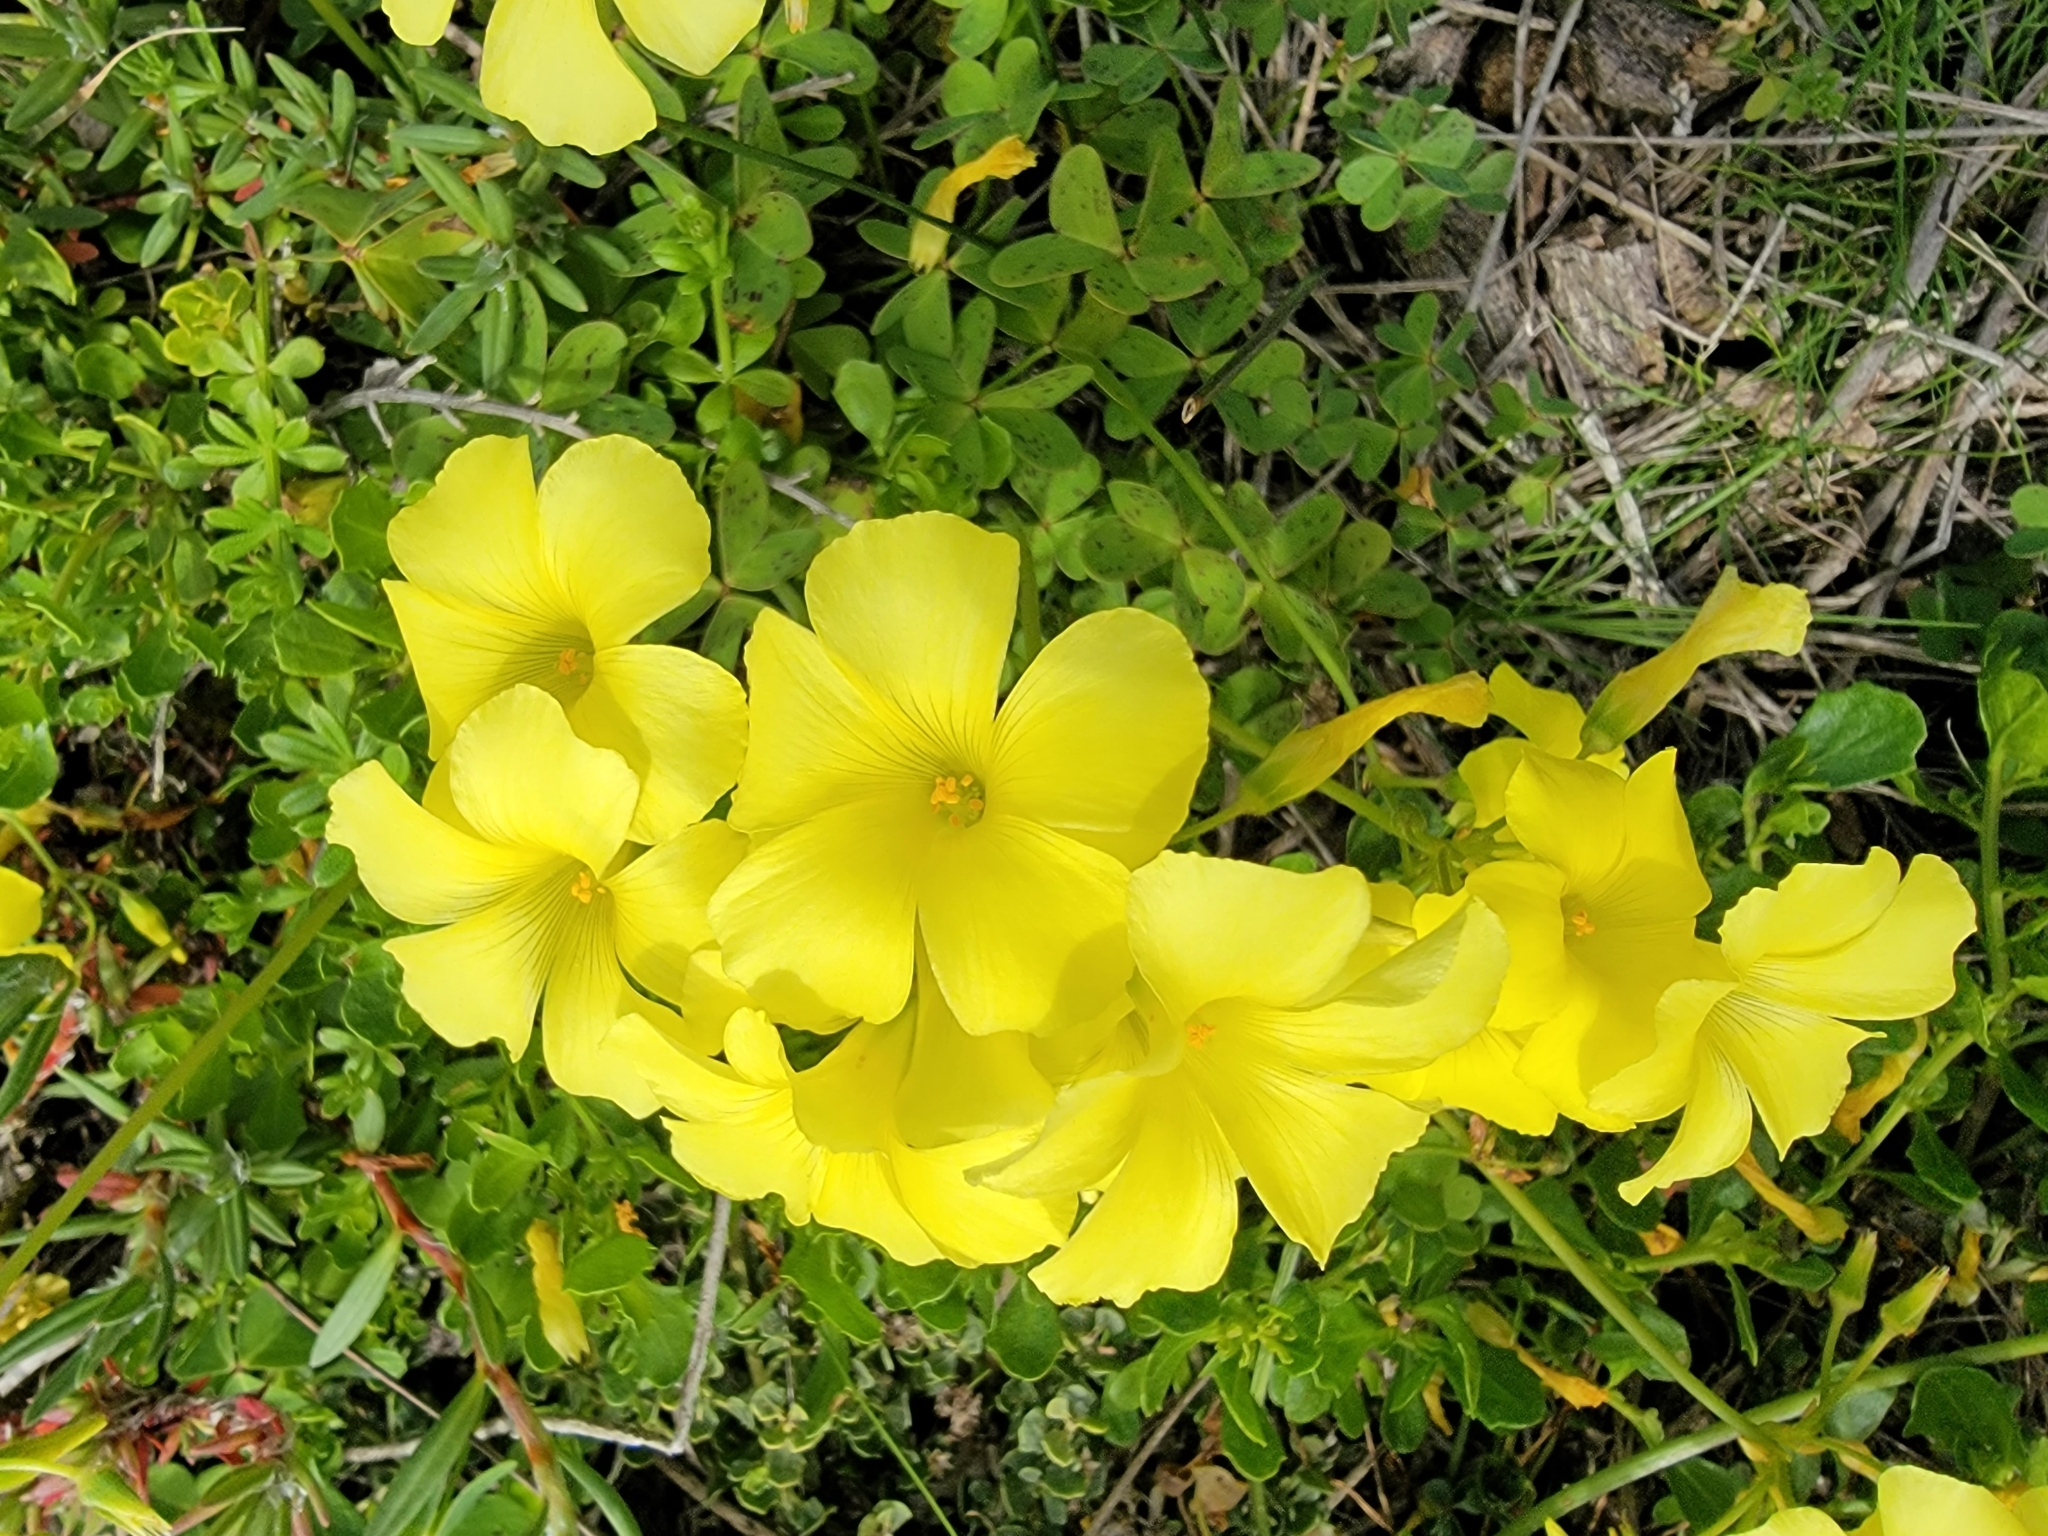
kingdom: Plantae
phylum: Tracheophyta
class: Magnoliopsida
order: Oxalidales
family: Oxalidaceae
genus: Oxalis
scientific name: Oxalis pes-caprae
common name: Bermuda-buttercup
